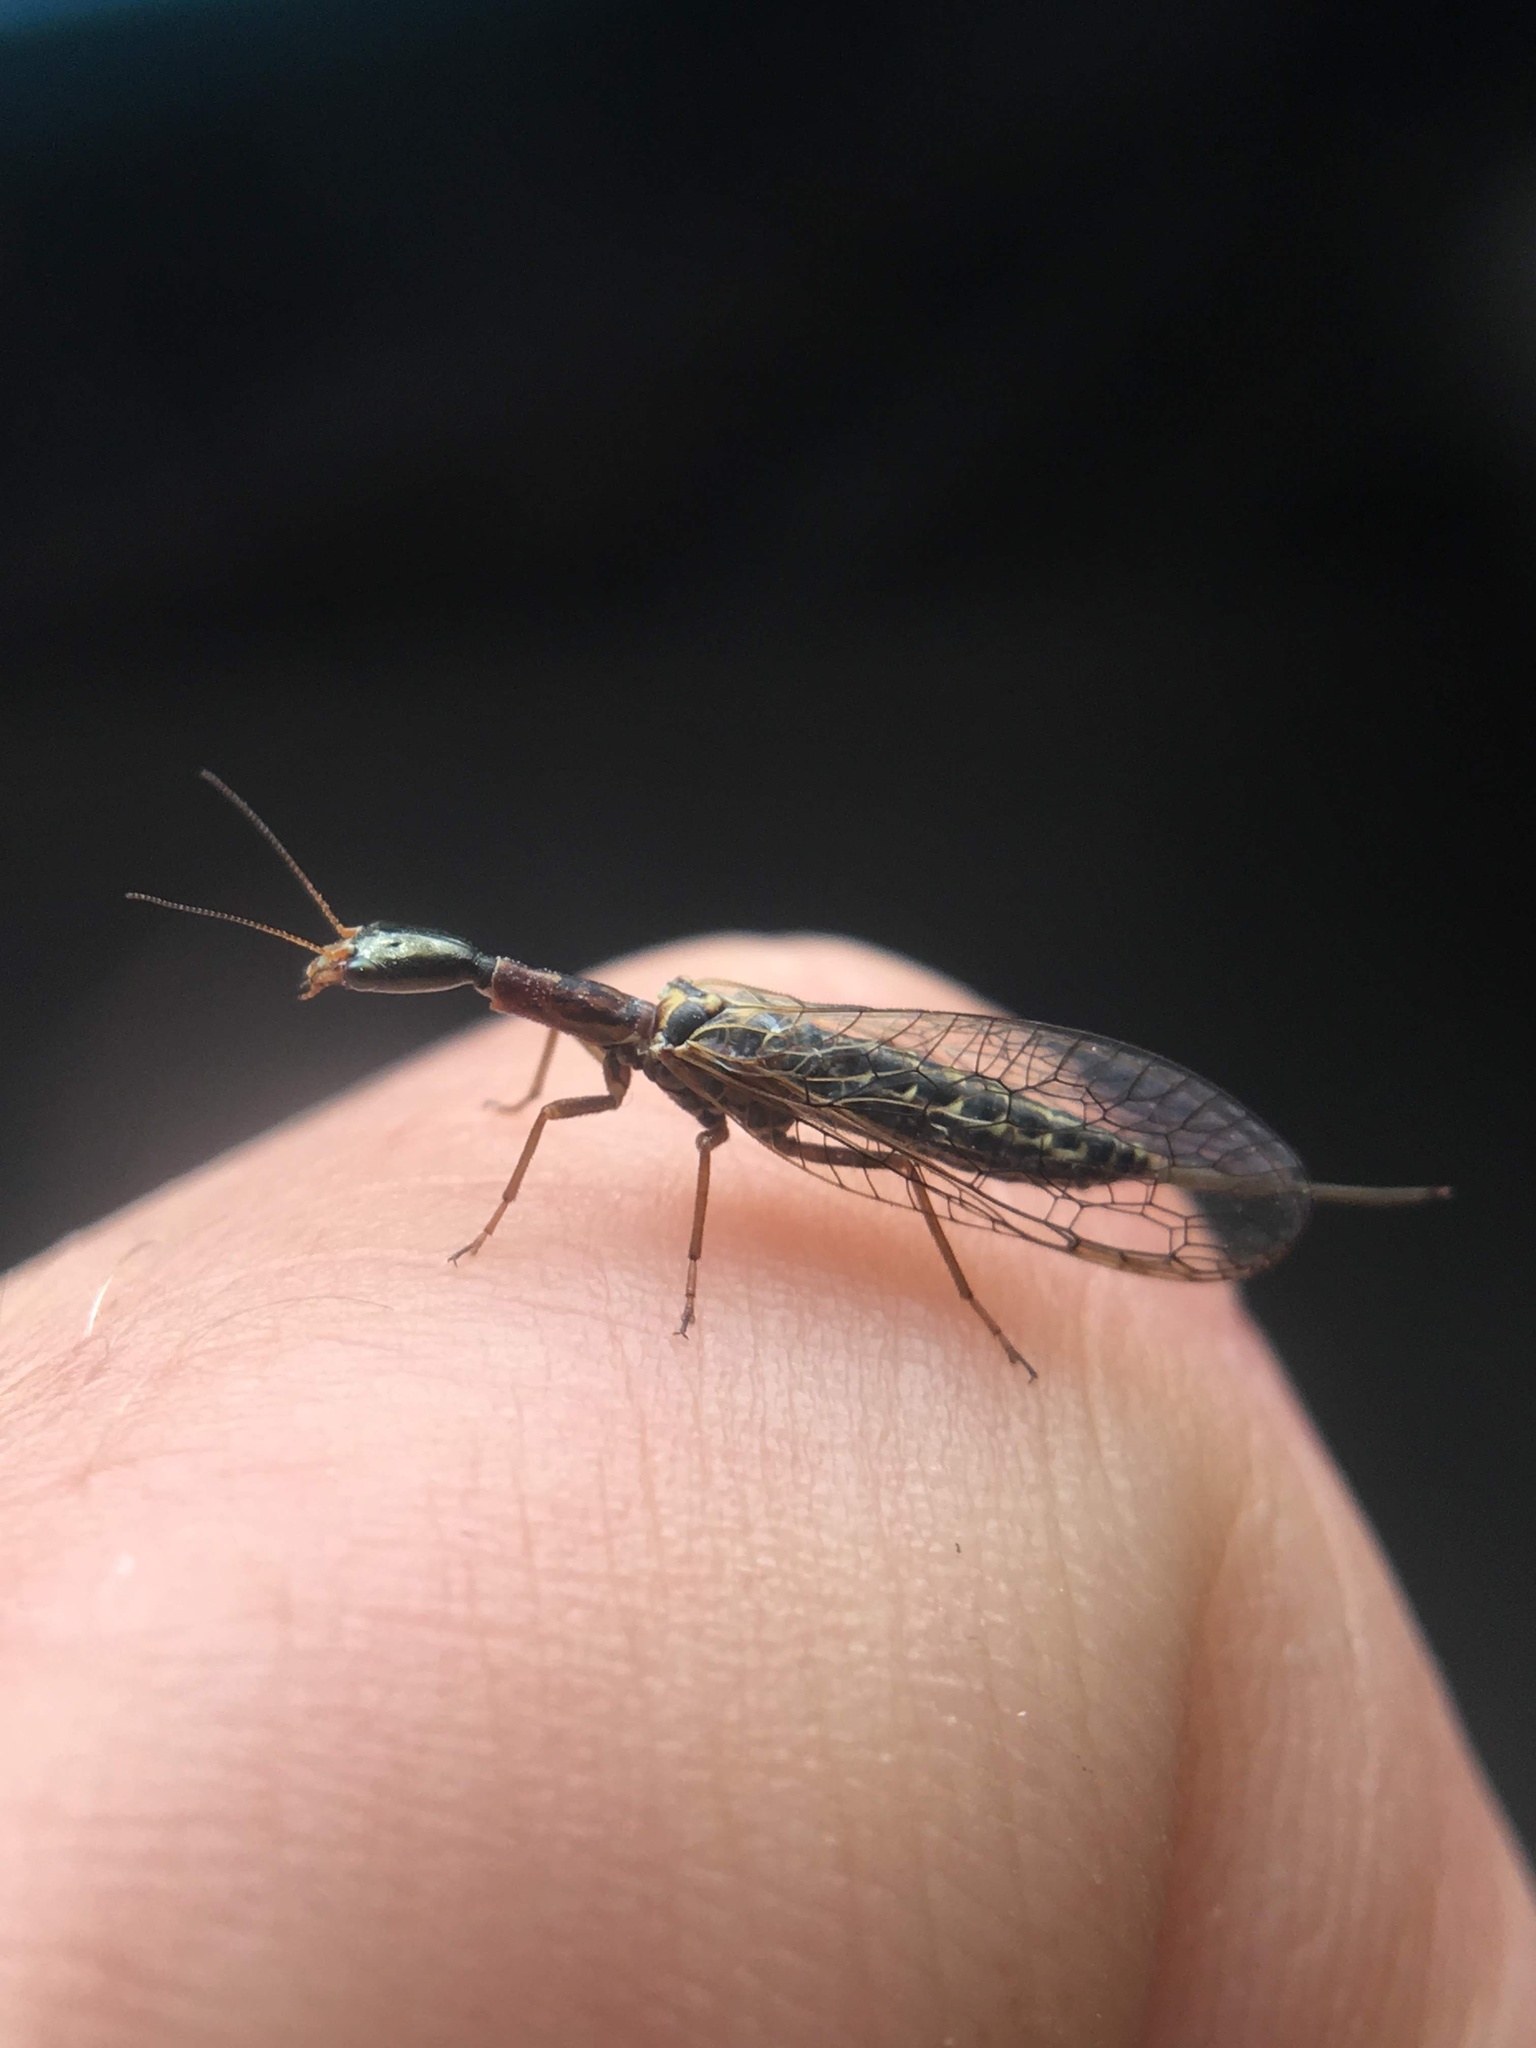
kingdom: Animalia
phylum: Arthropoda
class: Insecta
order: Raphidioptera
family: Raphidiidae
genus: Xanthostigma
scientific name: Xanthostigma xanthostigma
